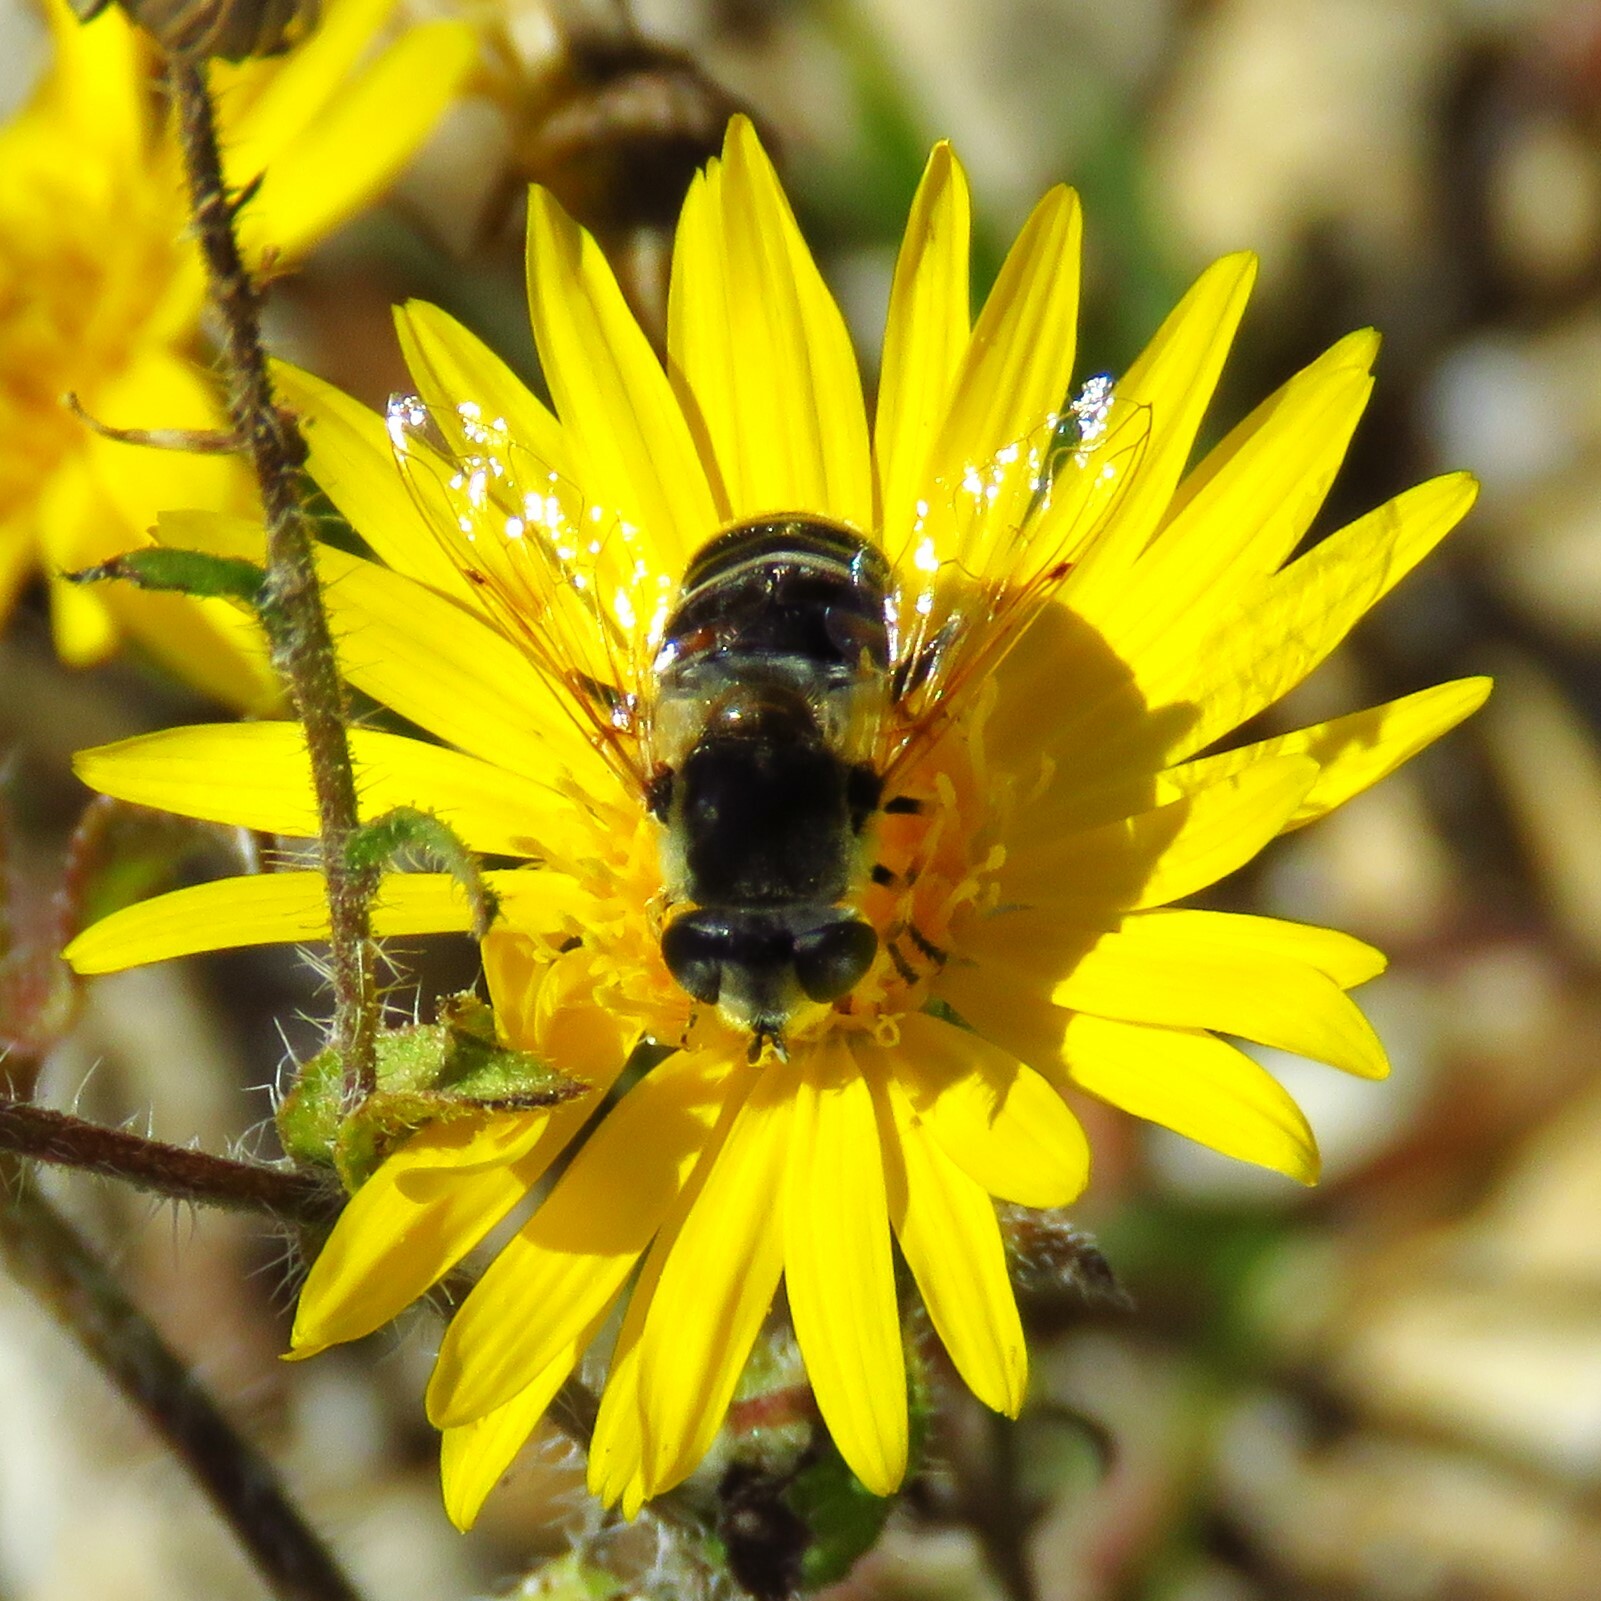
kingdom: Animalia
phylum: Arthropoda
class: Insecta
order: Diptera
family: Syrphidae
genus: Eristalis
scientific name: Eristalis stipator
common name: Yellow-shouldered drone fly
